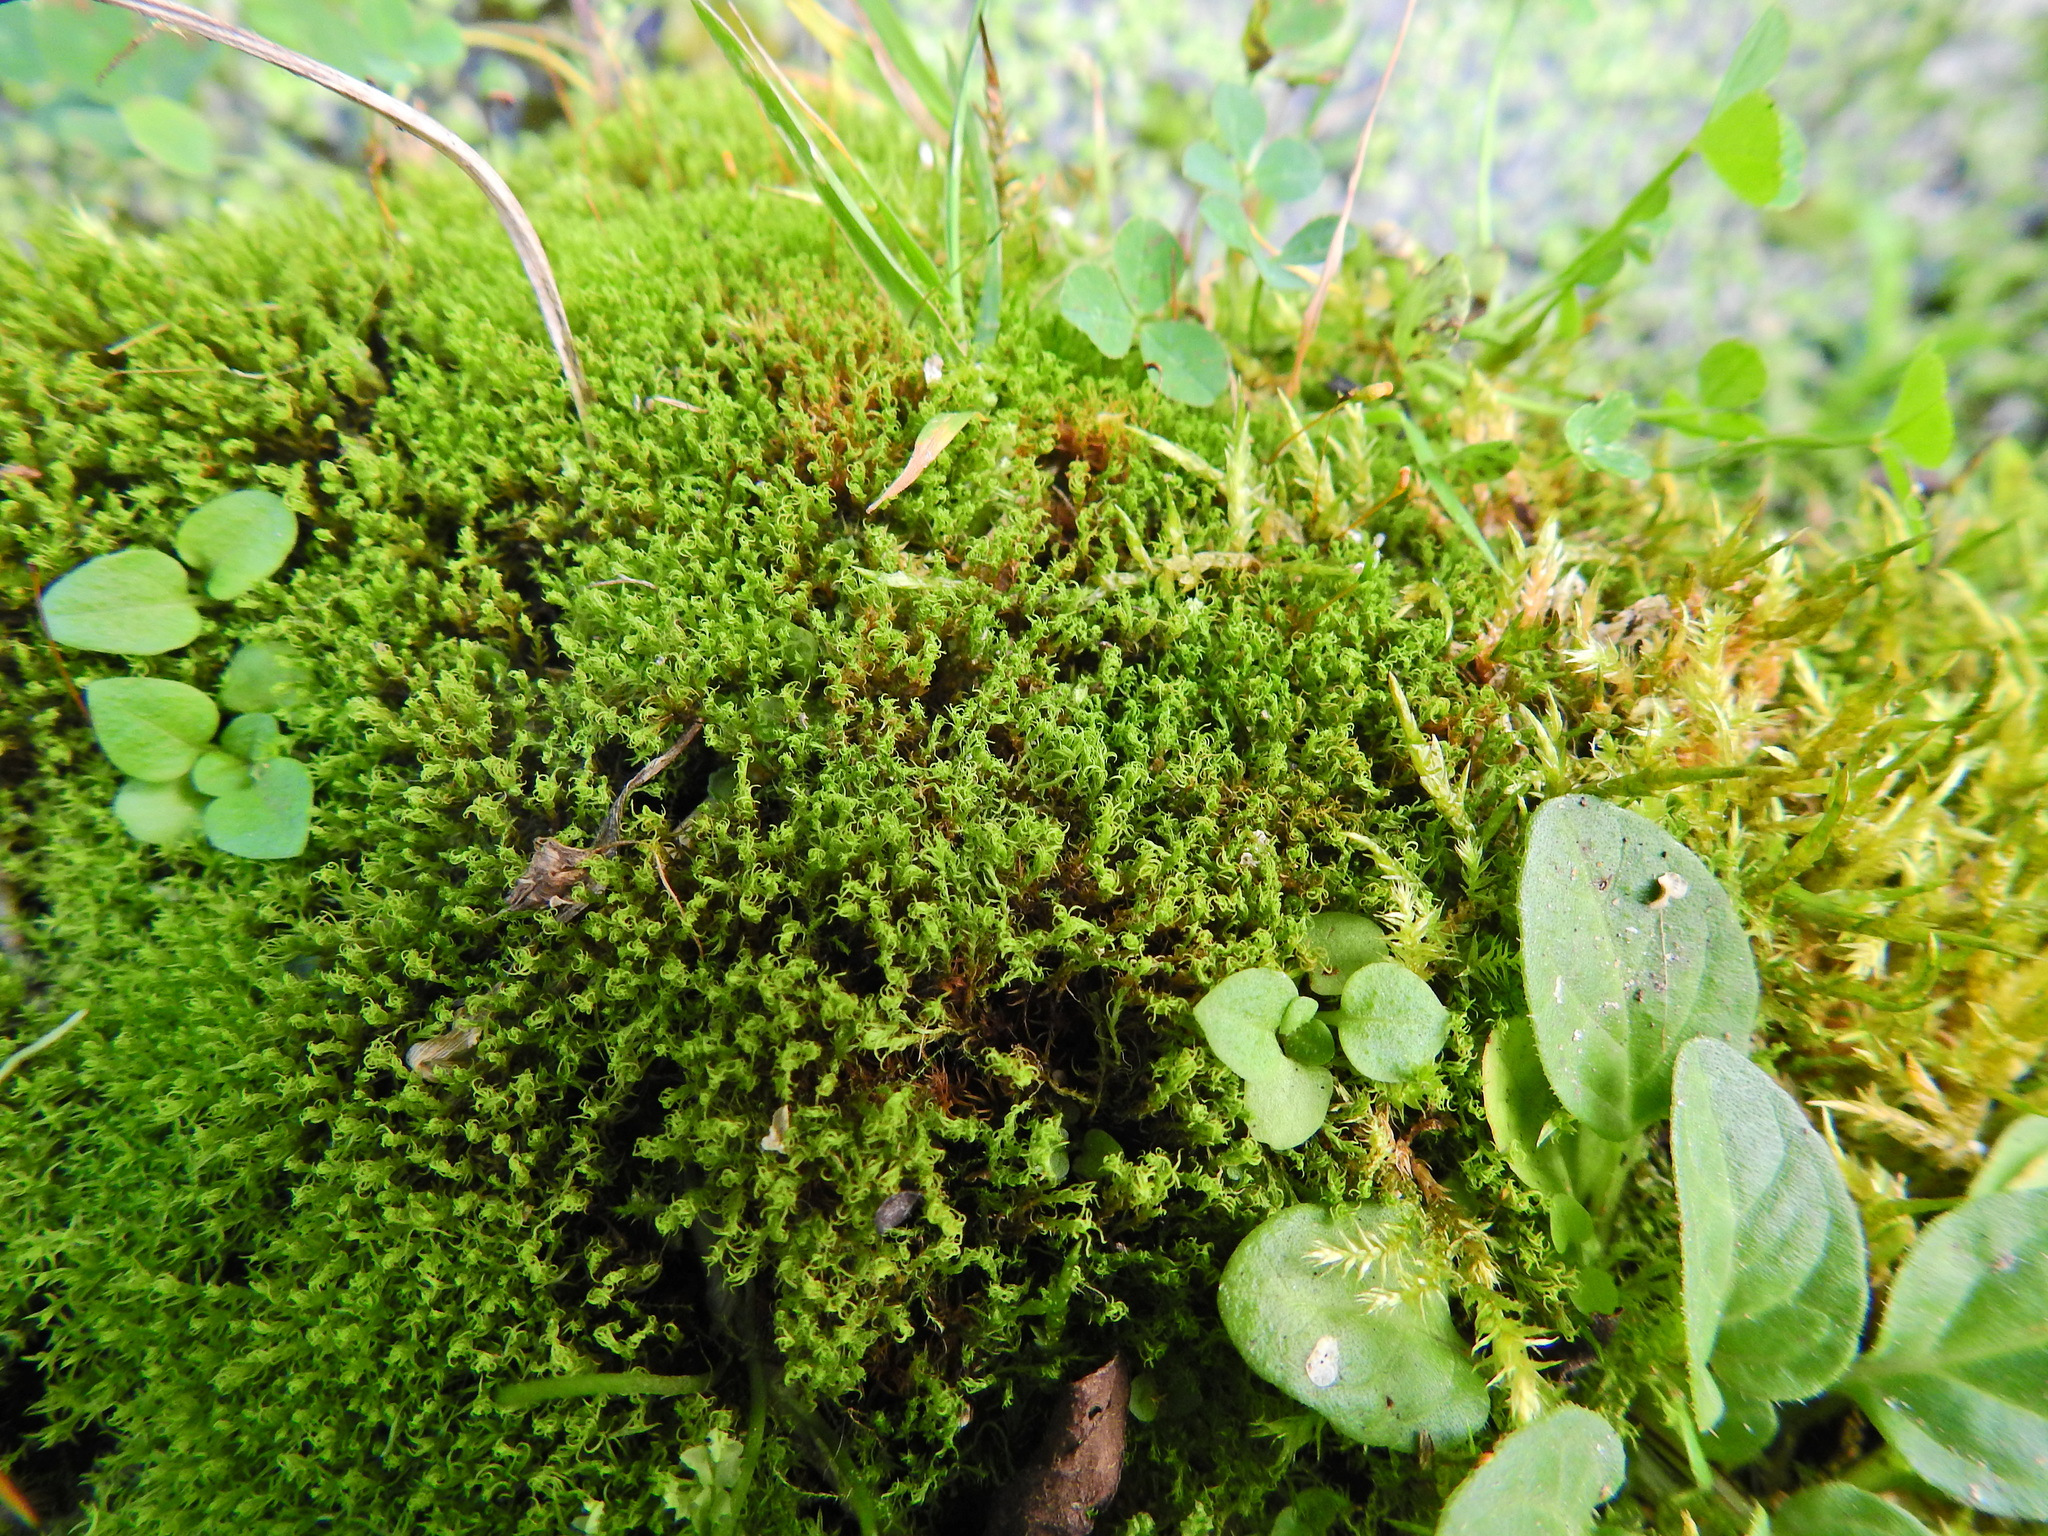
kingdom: Plantae
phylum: Bryophyta
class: Bryopsida
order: Pottiales
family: Pottiaceae
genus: Vinealobryum
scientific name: Vinealobryum insulanum
